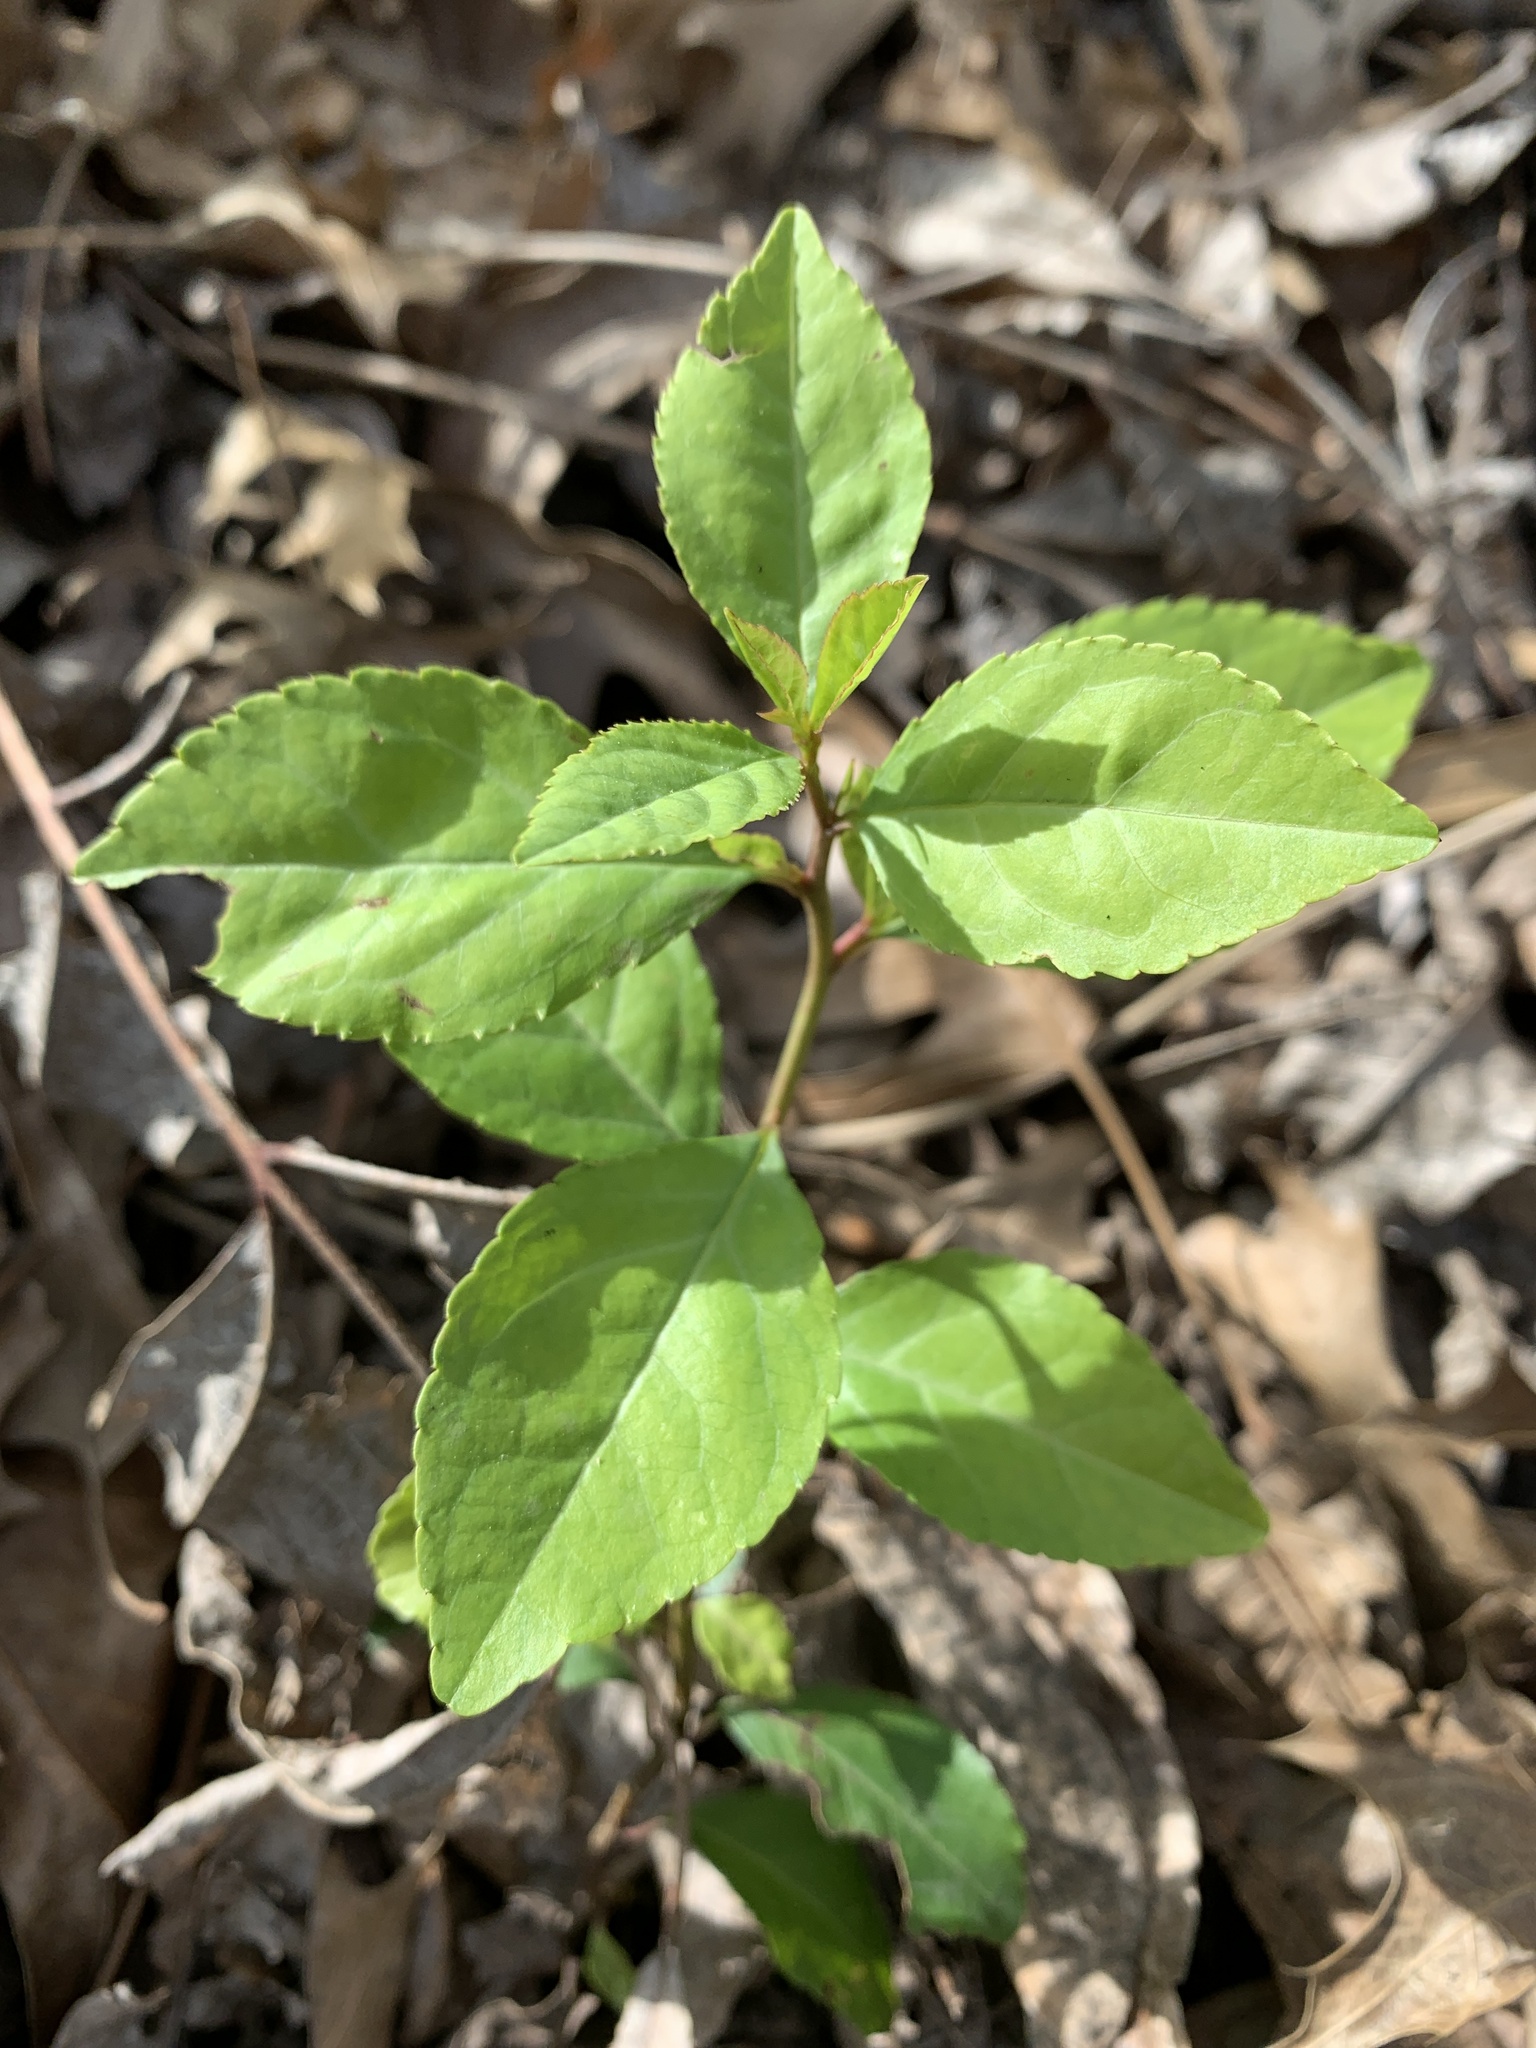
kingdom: Plantae
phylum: Tracheophyta
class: Magnoliopsida
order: Aquifoliales
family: Aquifoliaceae
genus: Ilex
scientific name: Ilex decidua
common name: Possum-haw
